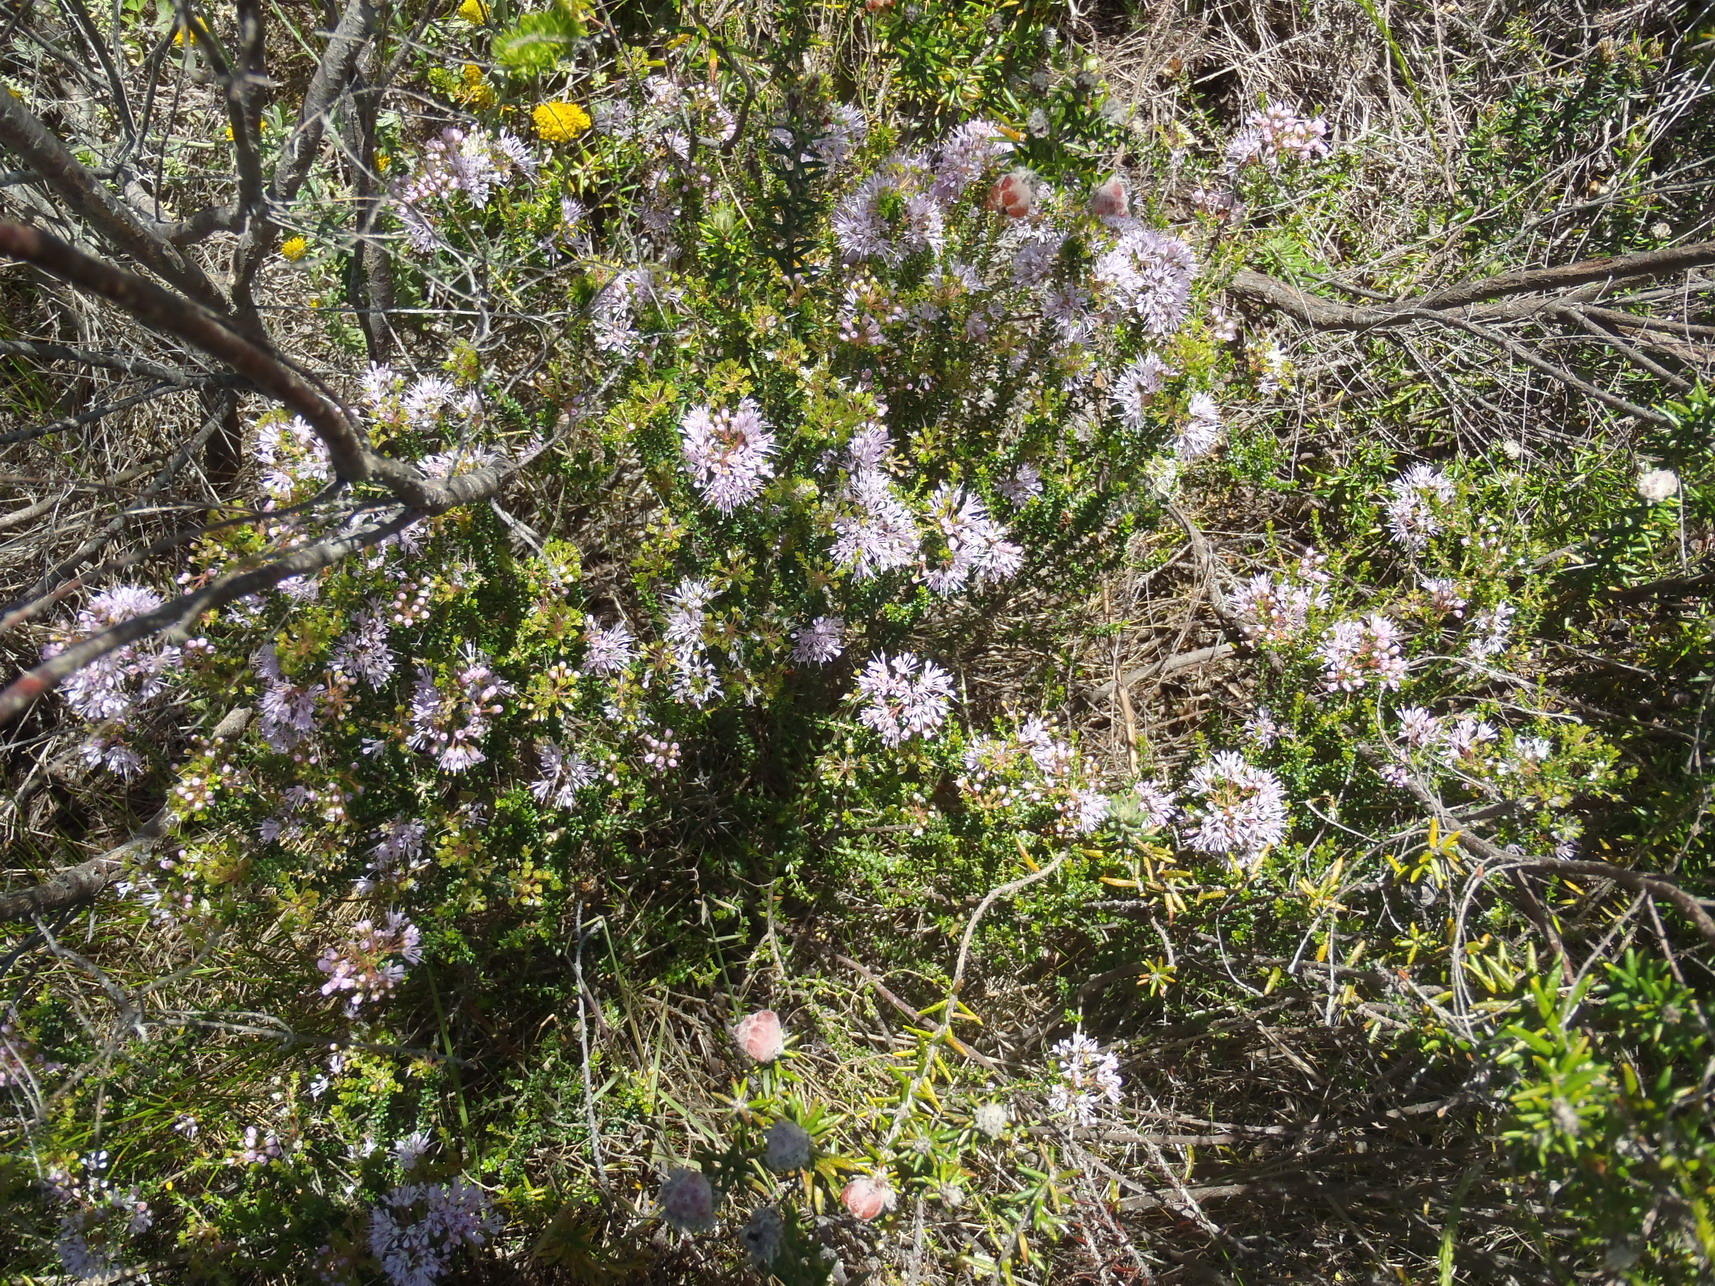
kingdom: Plantae
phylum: Tracheophyta
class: Magnoliopsida
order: Sapindales
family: Rutaceae
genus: Agathosma
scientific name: Agathosma capensis
